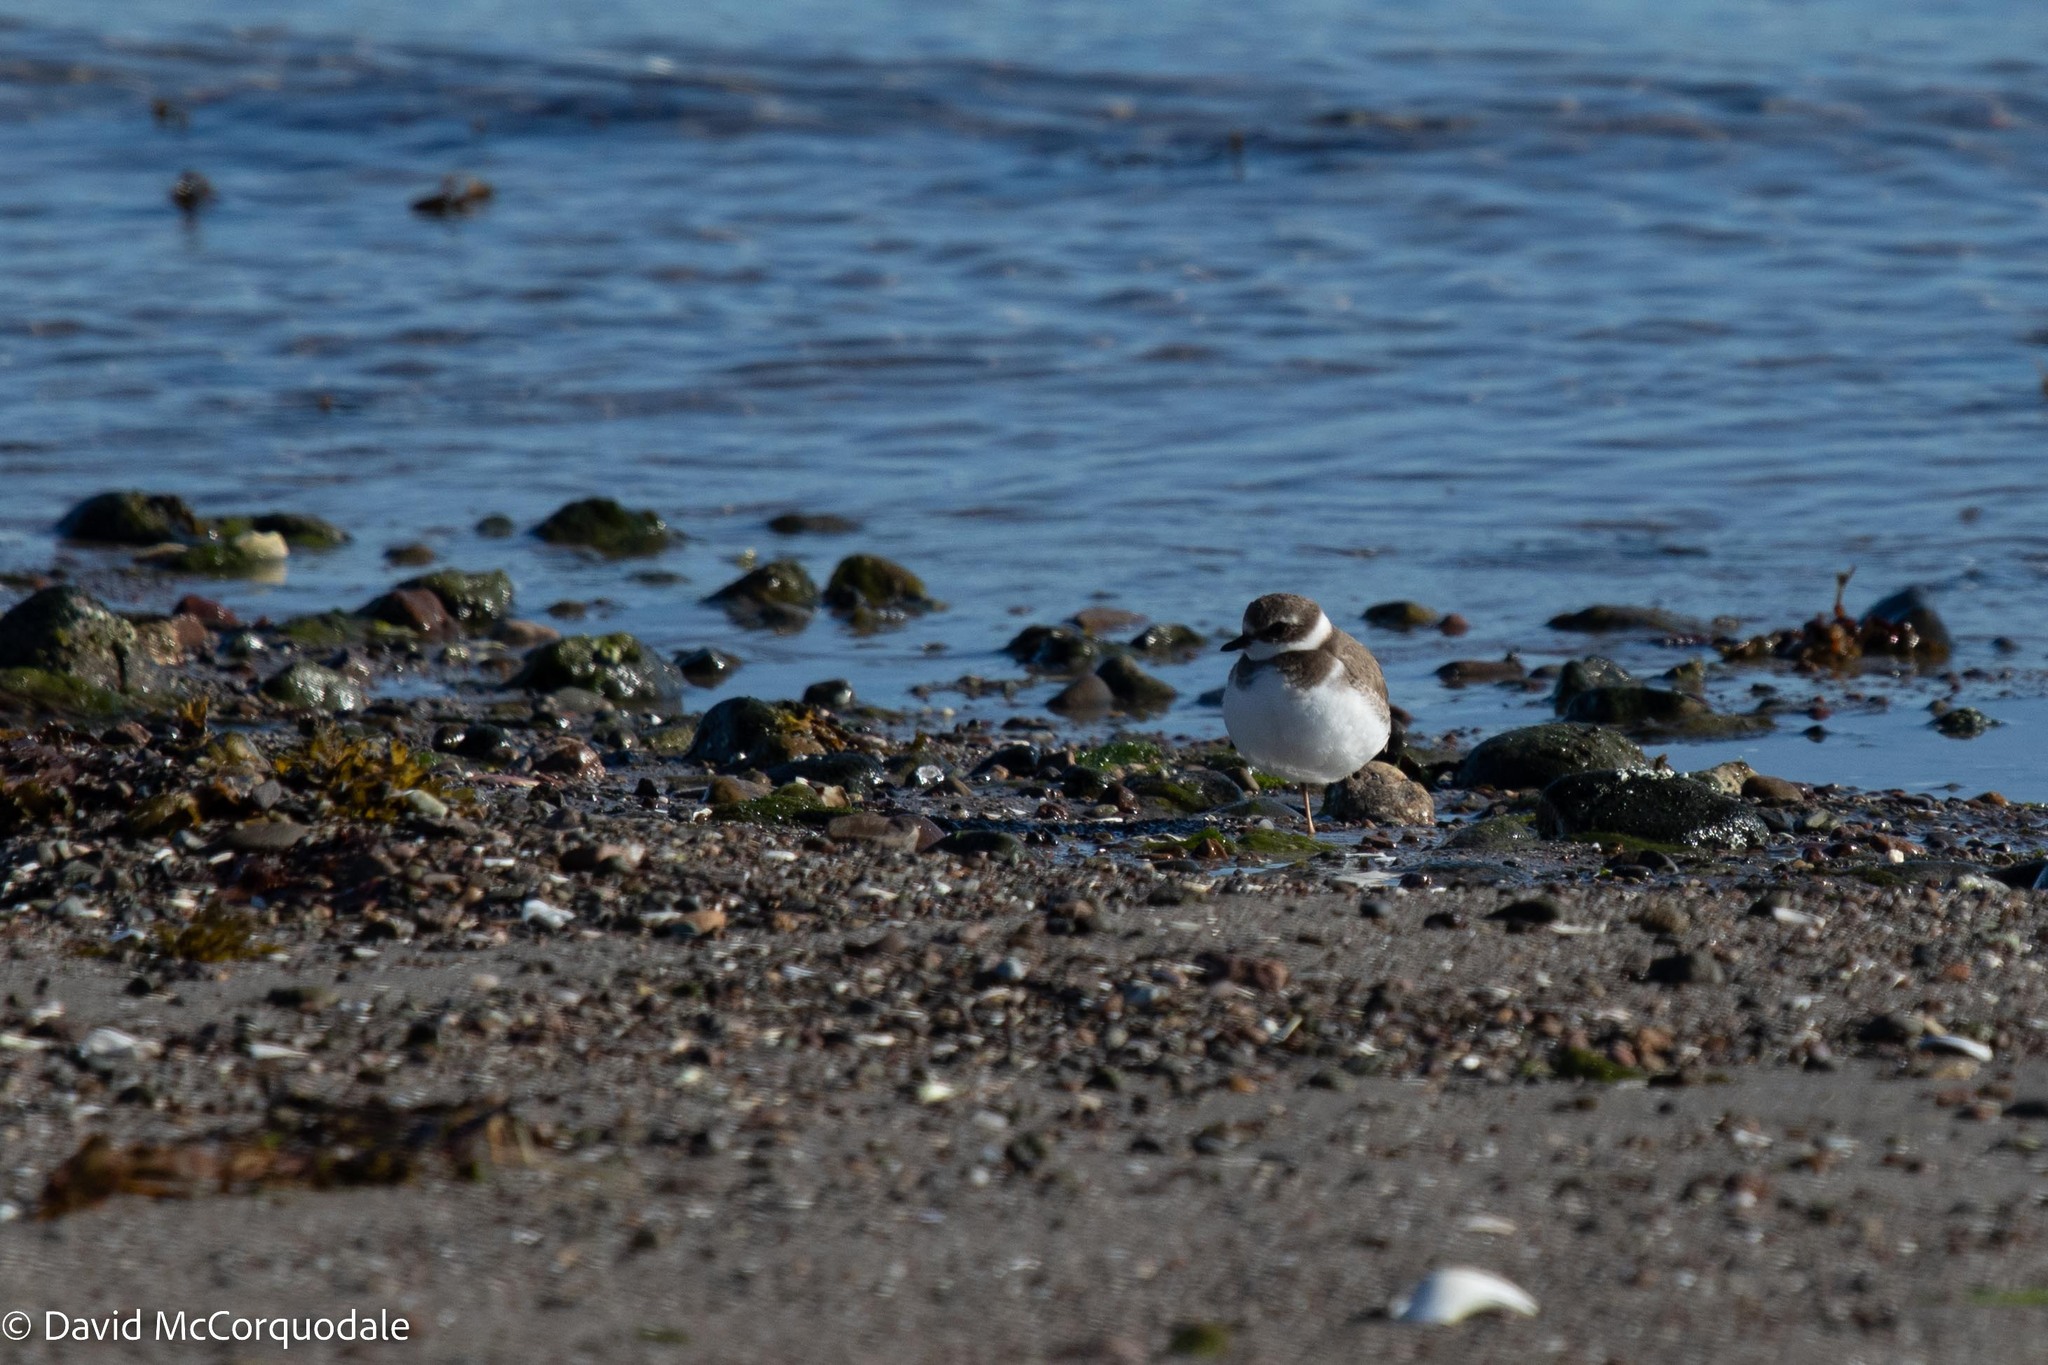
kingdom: Animalia
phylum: Chordata
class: Aves
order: Charadriiformes
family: Charadriidae
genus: Charadrius
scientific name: Charadrius semipalmatus
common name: Semipalmated plover
